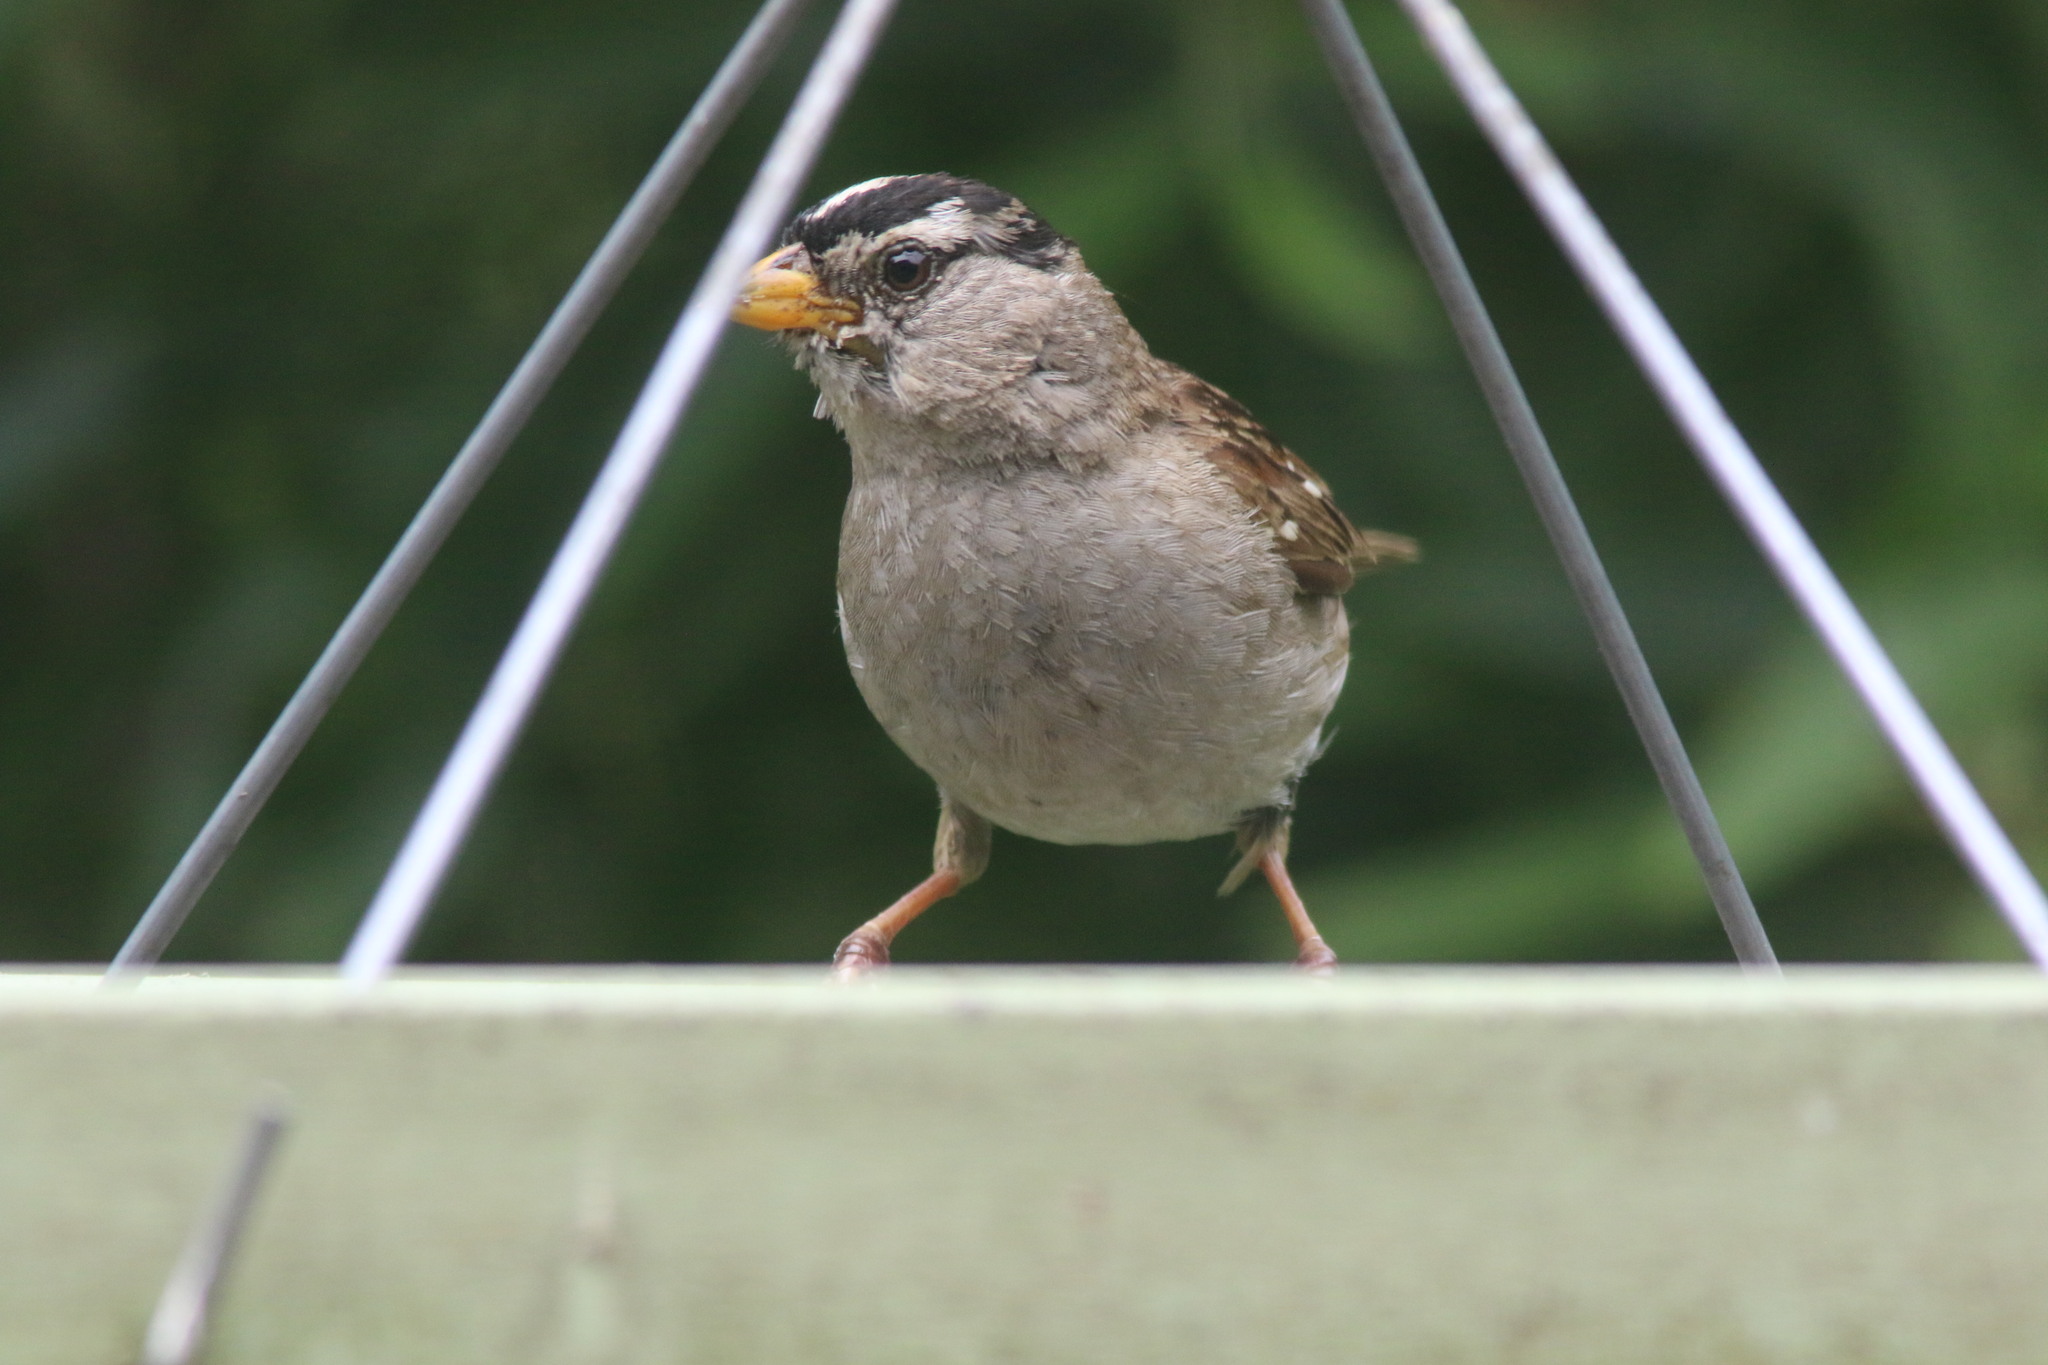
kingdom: Animalia
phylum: Chordata
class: Aves
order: Passeriformes
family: Passerellidae
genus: Zonotrichia
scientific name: Zonotrichia leucophrys
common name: White-crowned sparrow
